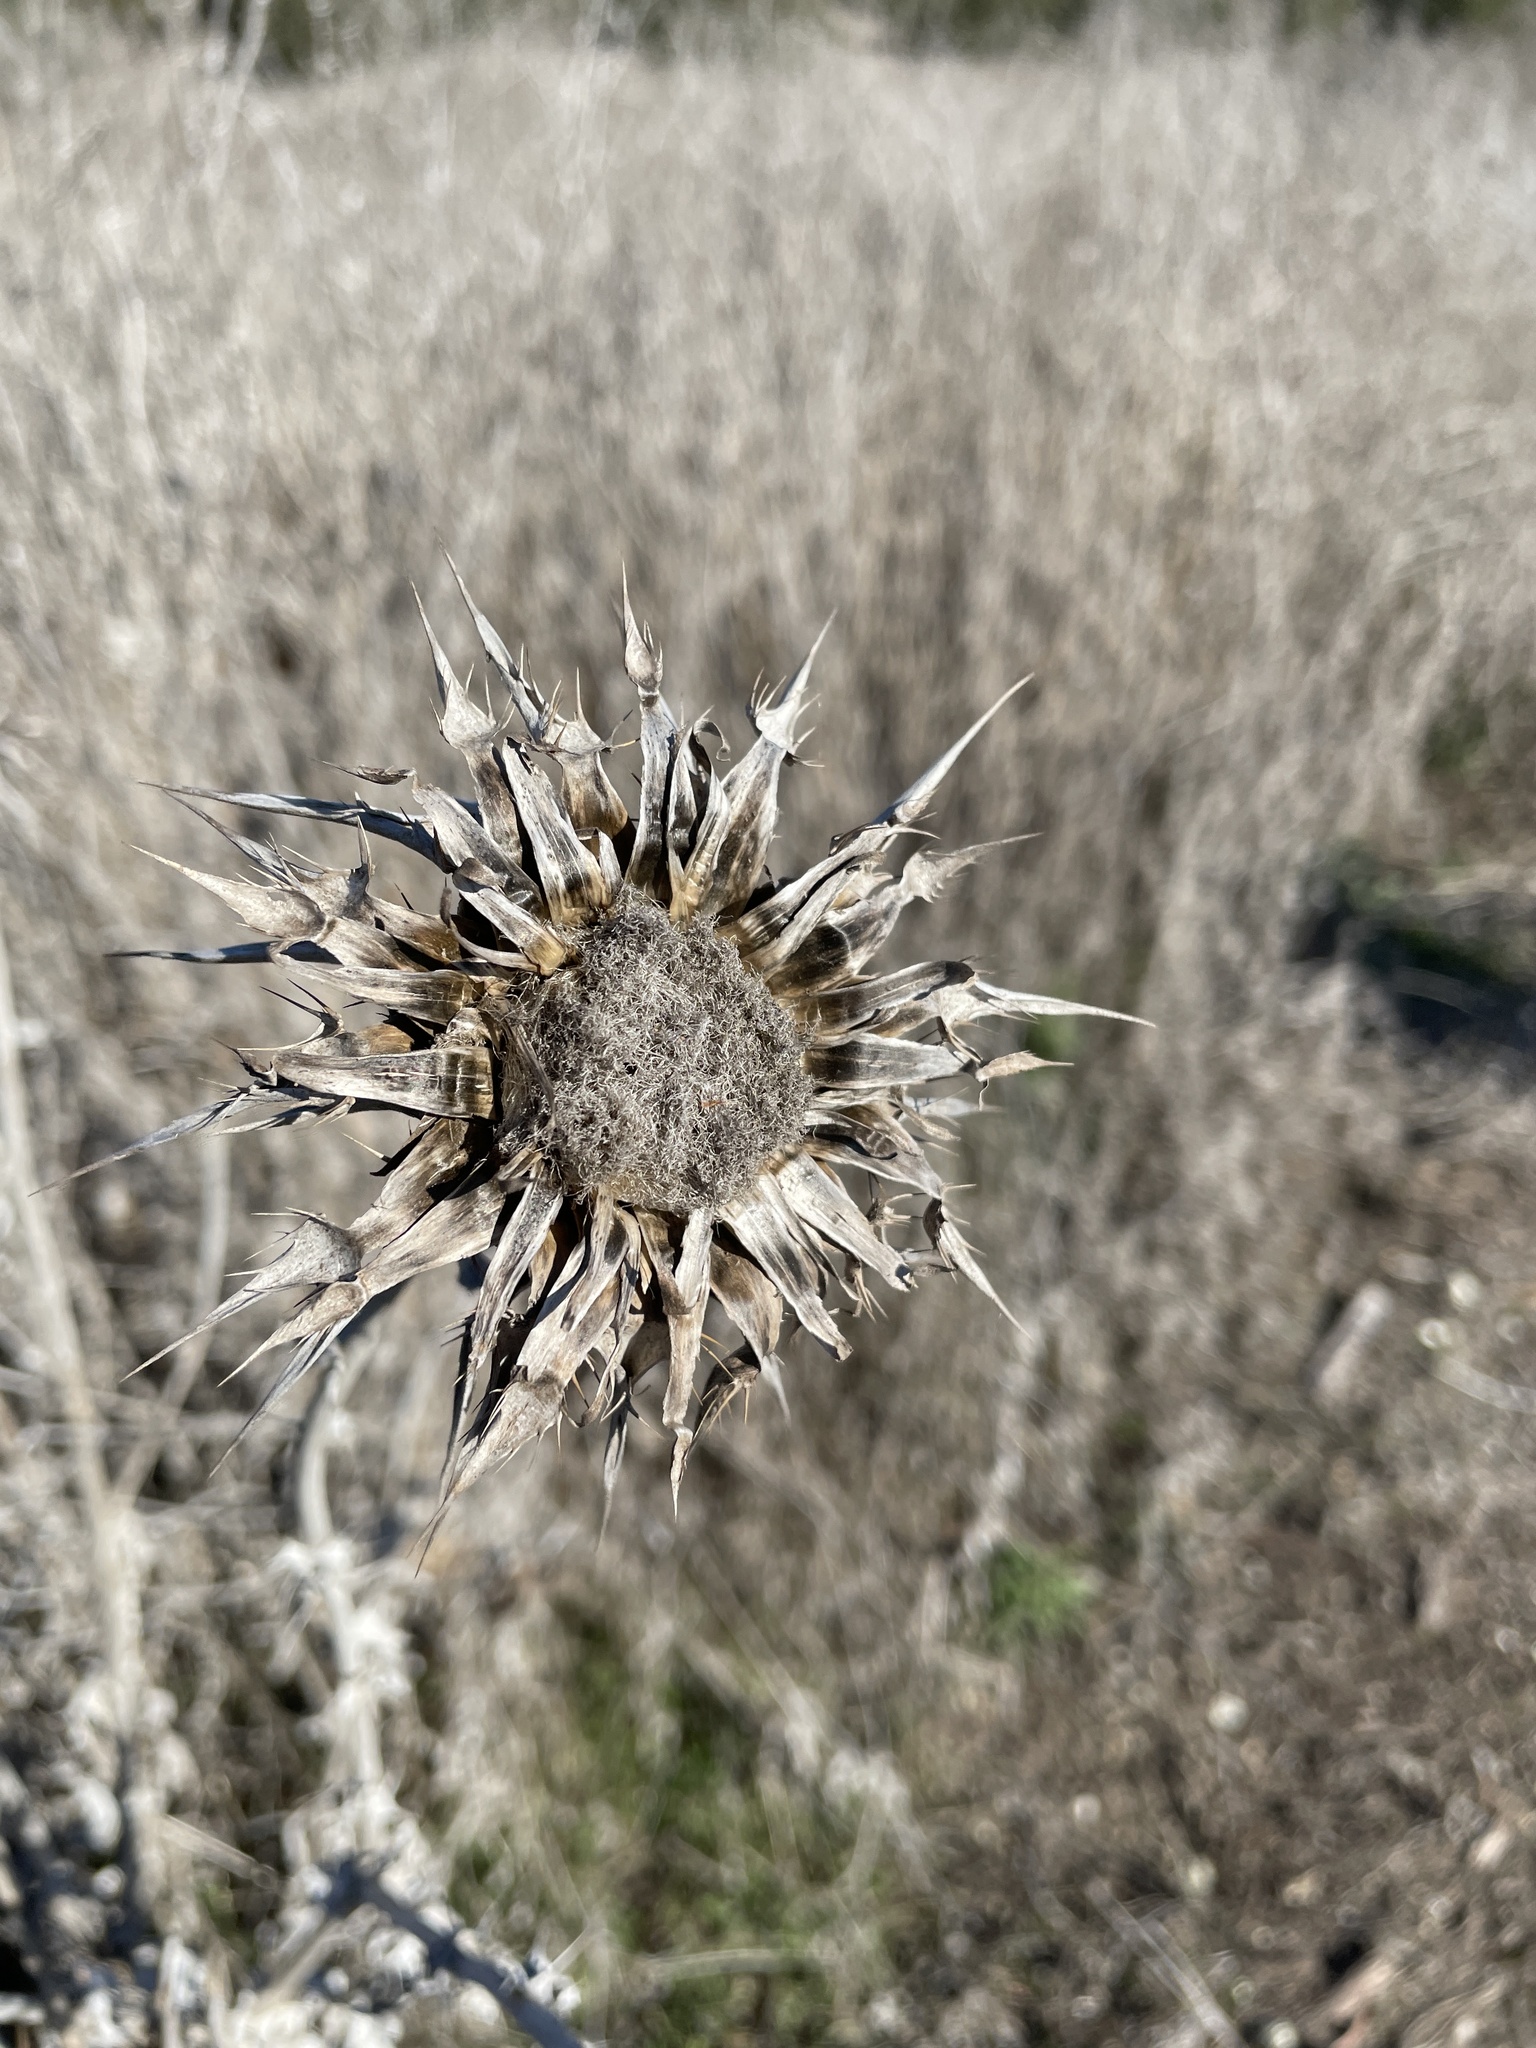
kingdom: Plantae
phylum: Tracheophyta
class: Magnoliopsida
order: Asterales
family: Asteraceae
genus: Silybum
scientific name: Silybum marianum
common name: Milk thistle
